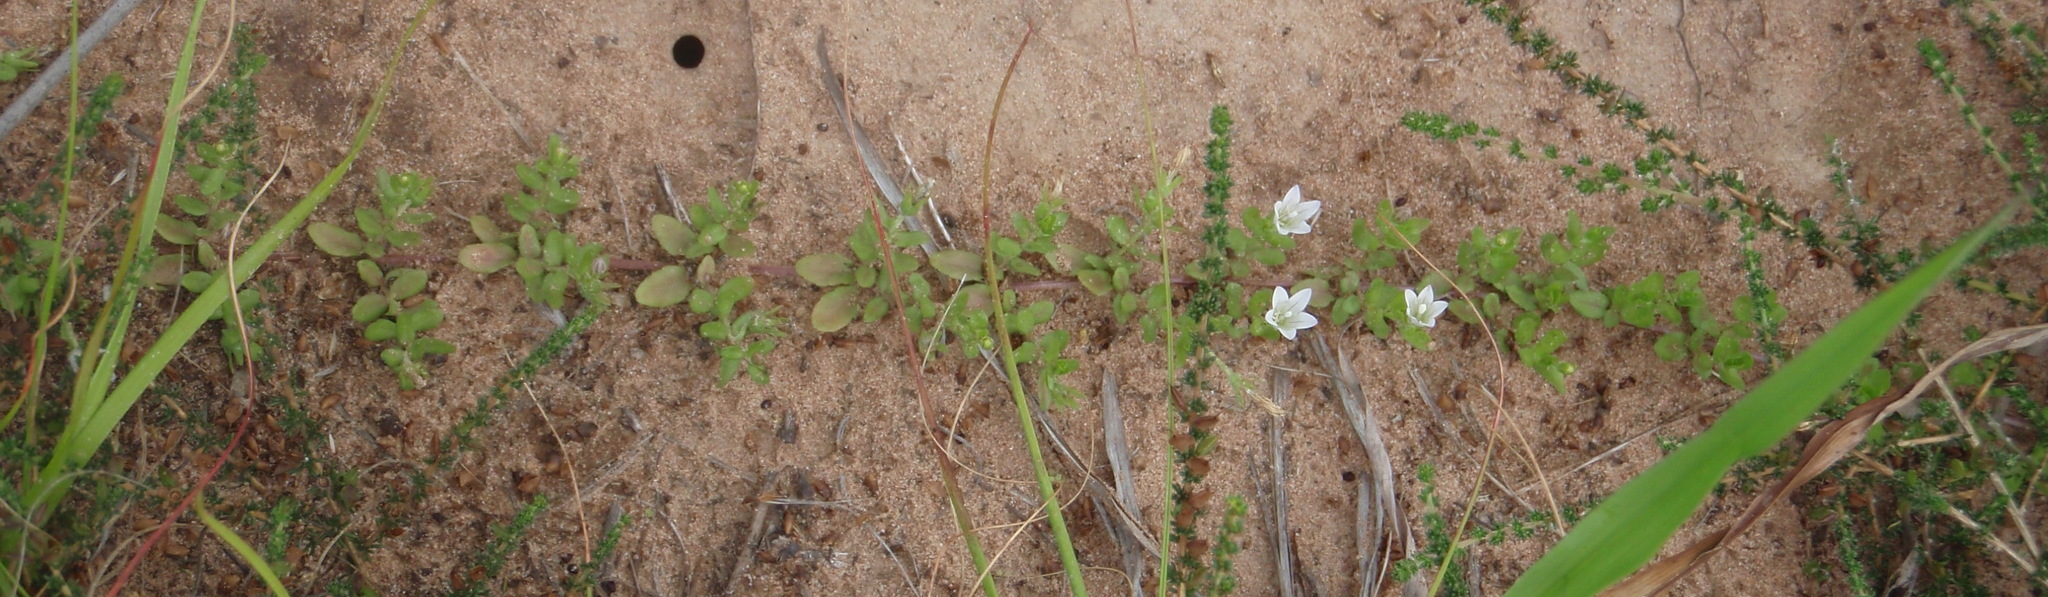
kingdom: Plantae
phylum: Tracheophyta
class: Magnoliopsida
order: Asterales
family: Campanulaceae
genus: Wahlenbergia
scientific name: Wahlenbergia procumbens
